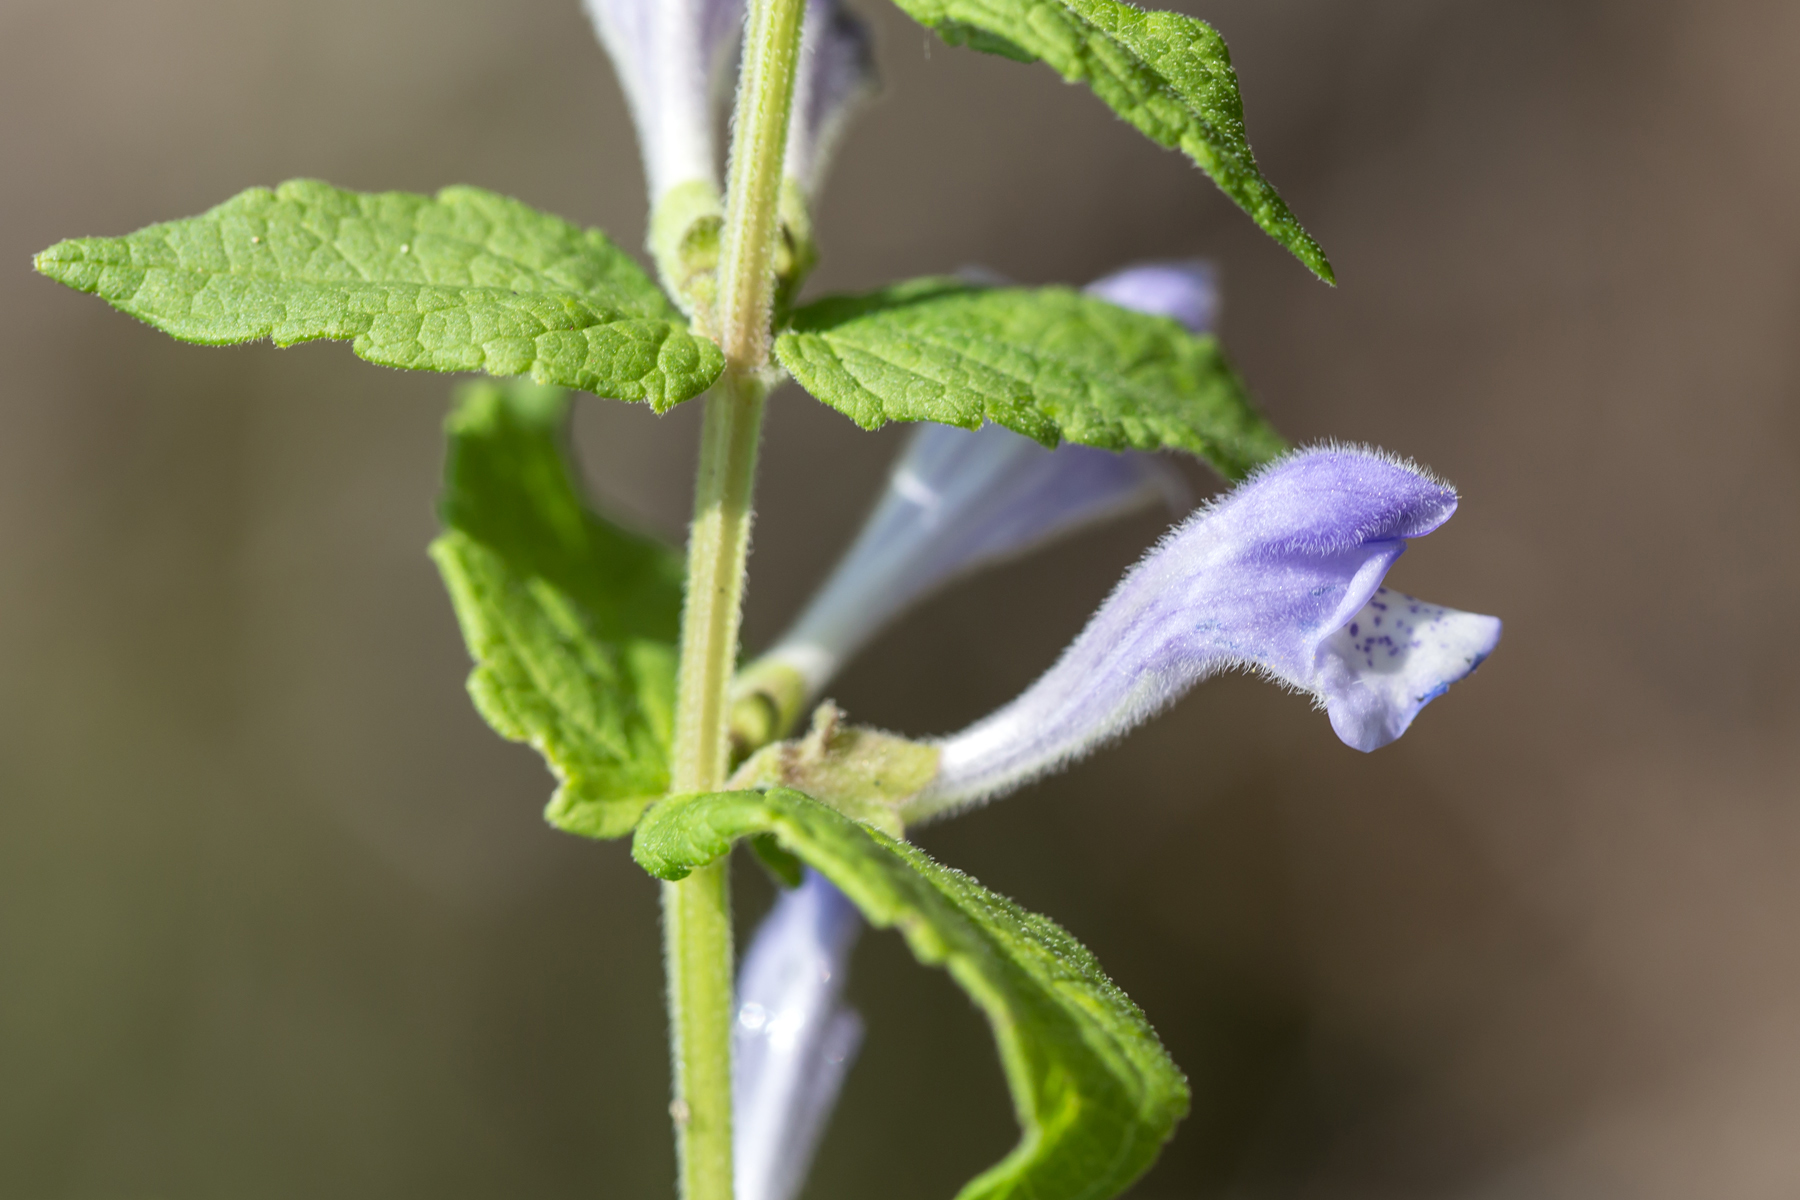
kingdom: Plantae
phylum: Tracheophyta
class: Magnoliopsida
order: Lamiales
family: Lamiaceae
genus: Scutellaria
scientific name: Scutellaria galericulata
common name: Skullcap
